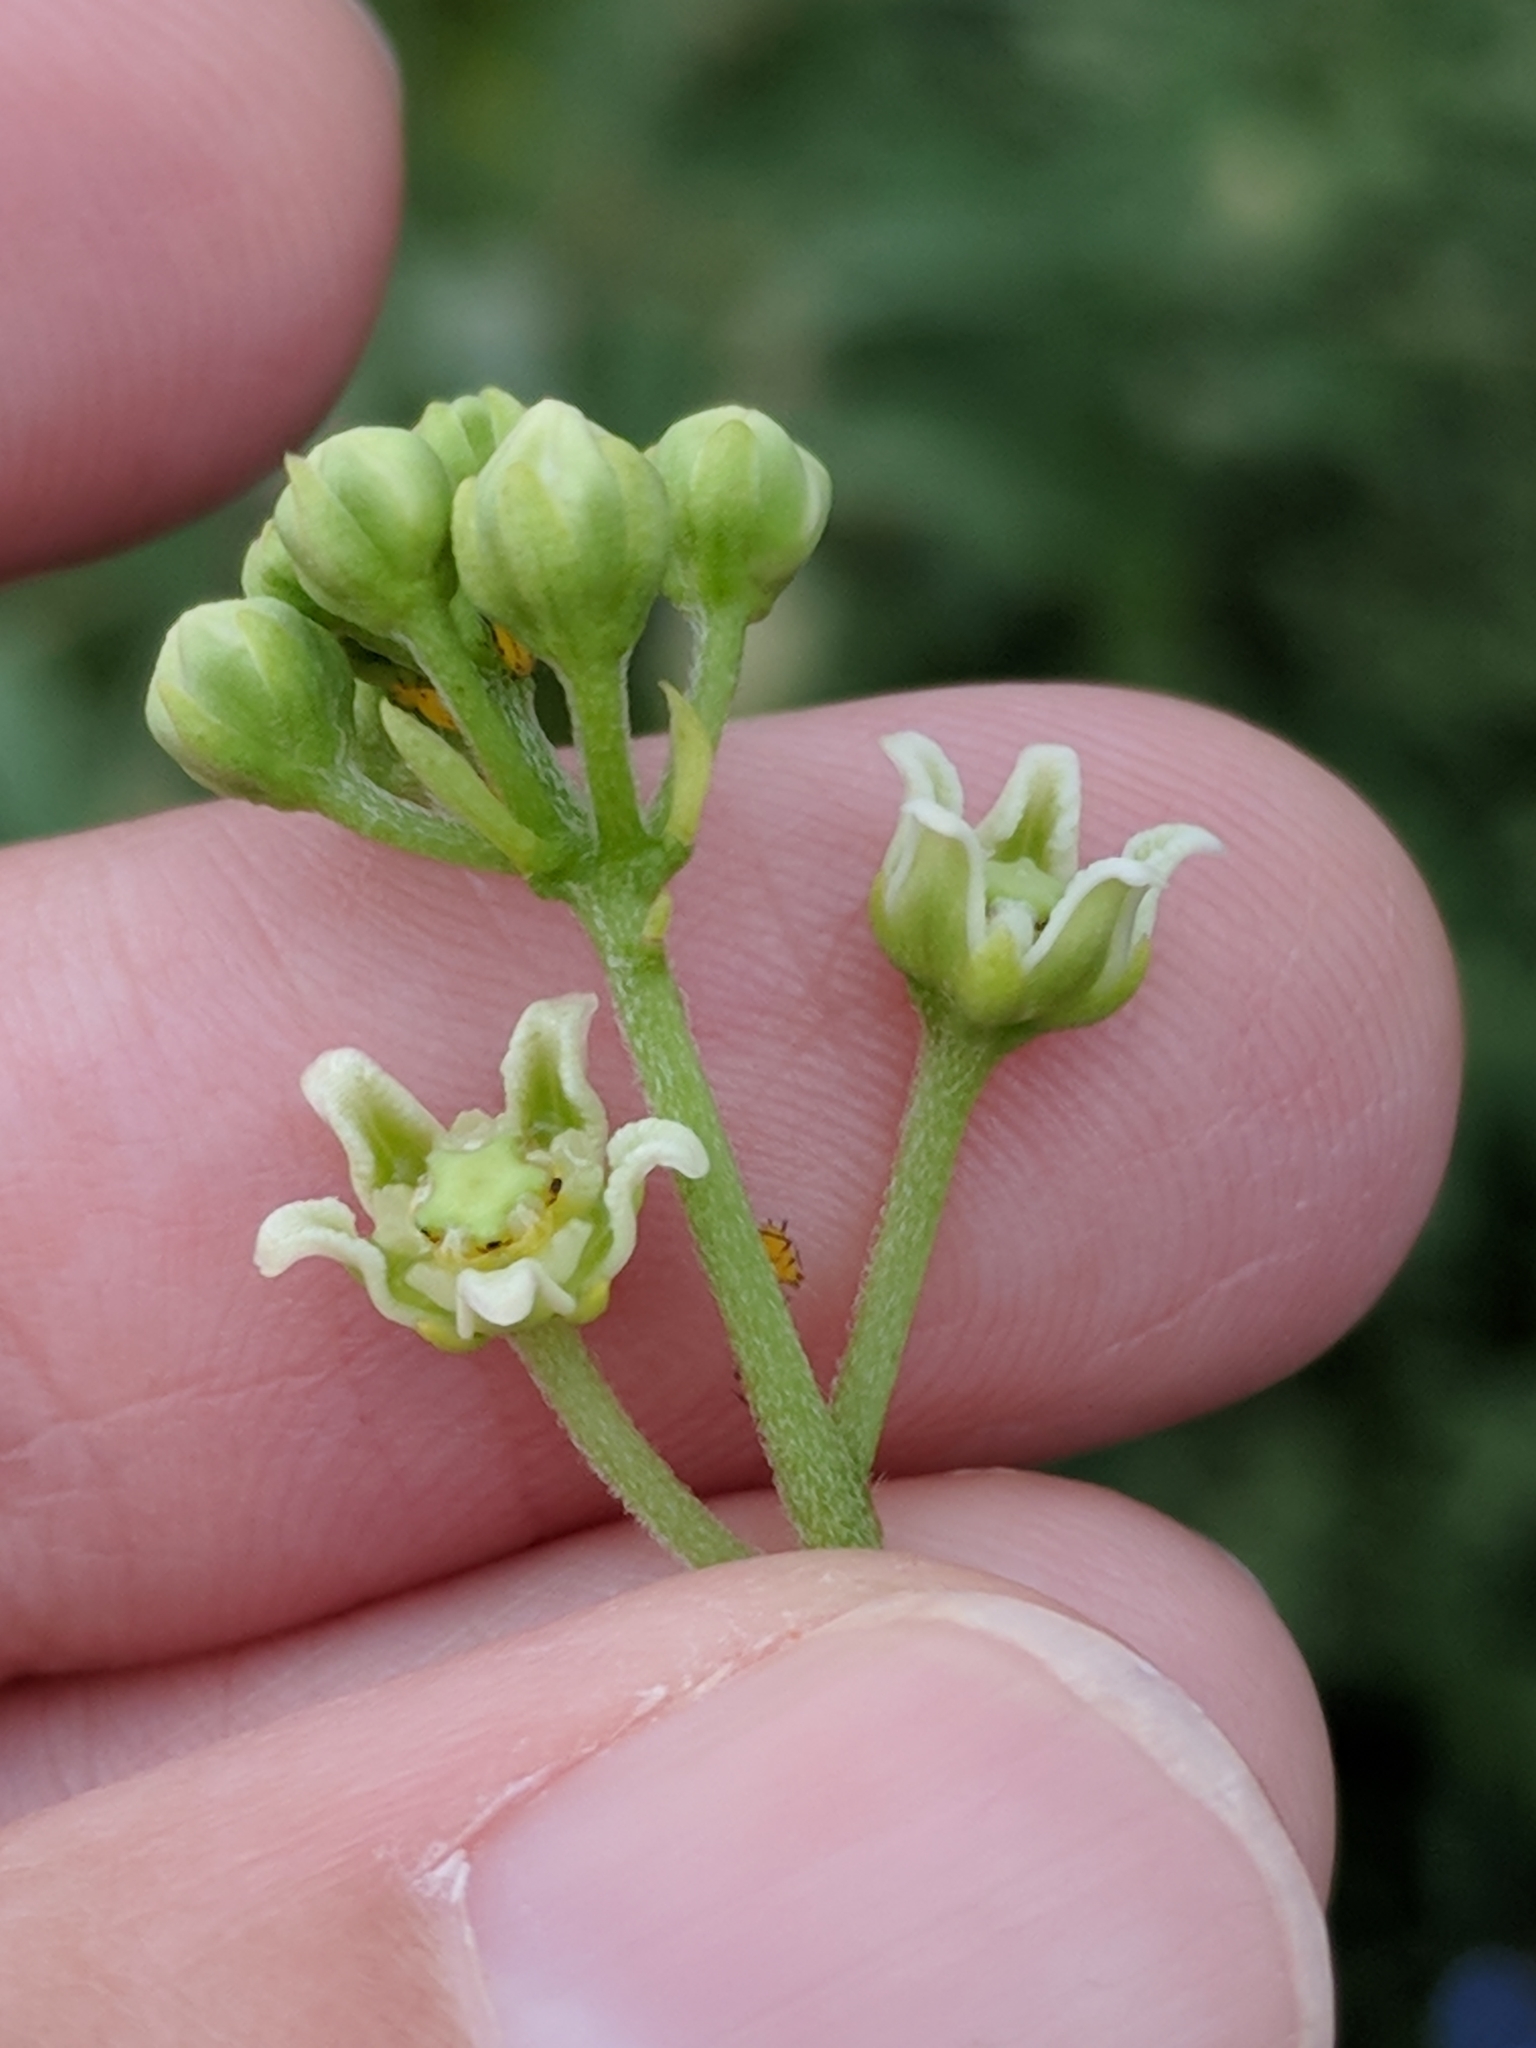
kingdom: Plantae
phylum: Tracheophyta
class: Magnoliopsida
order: Gentianales
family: Apocynaceae
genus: Cynanchum
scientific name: Cynanchum racemosum
